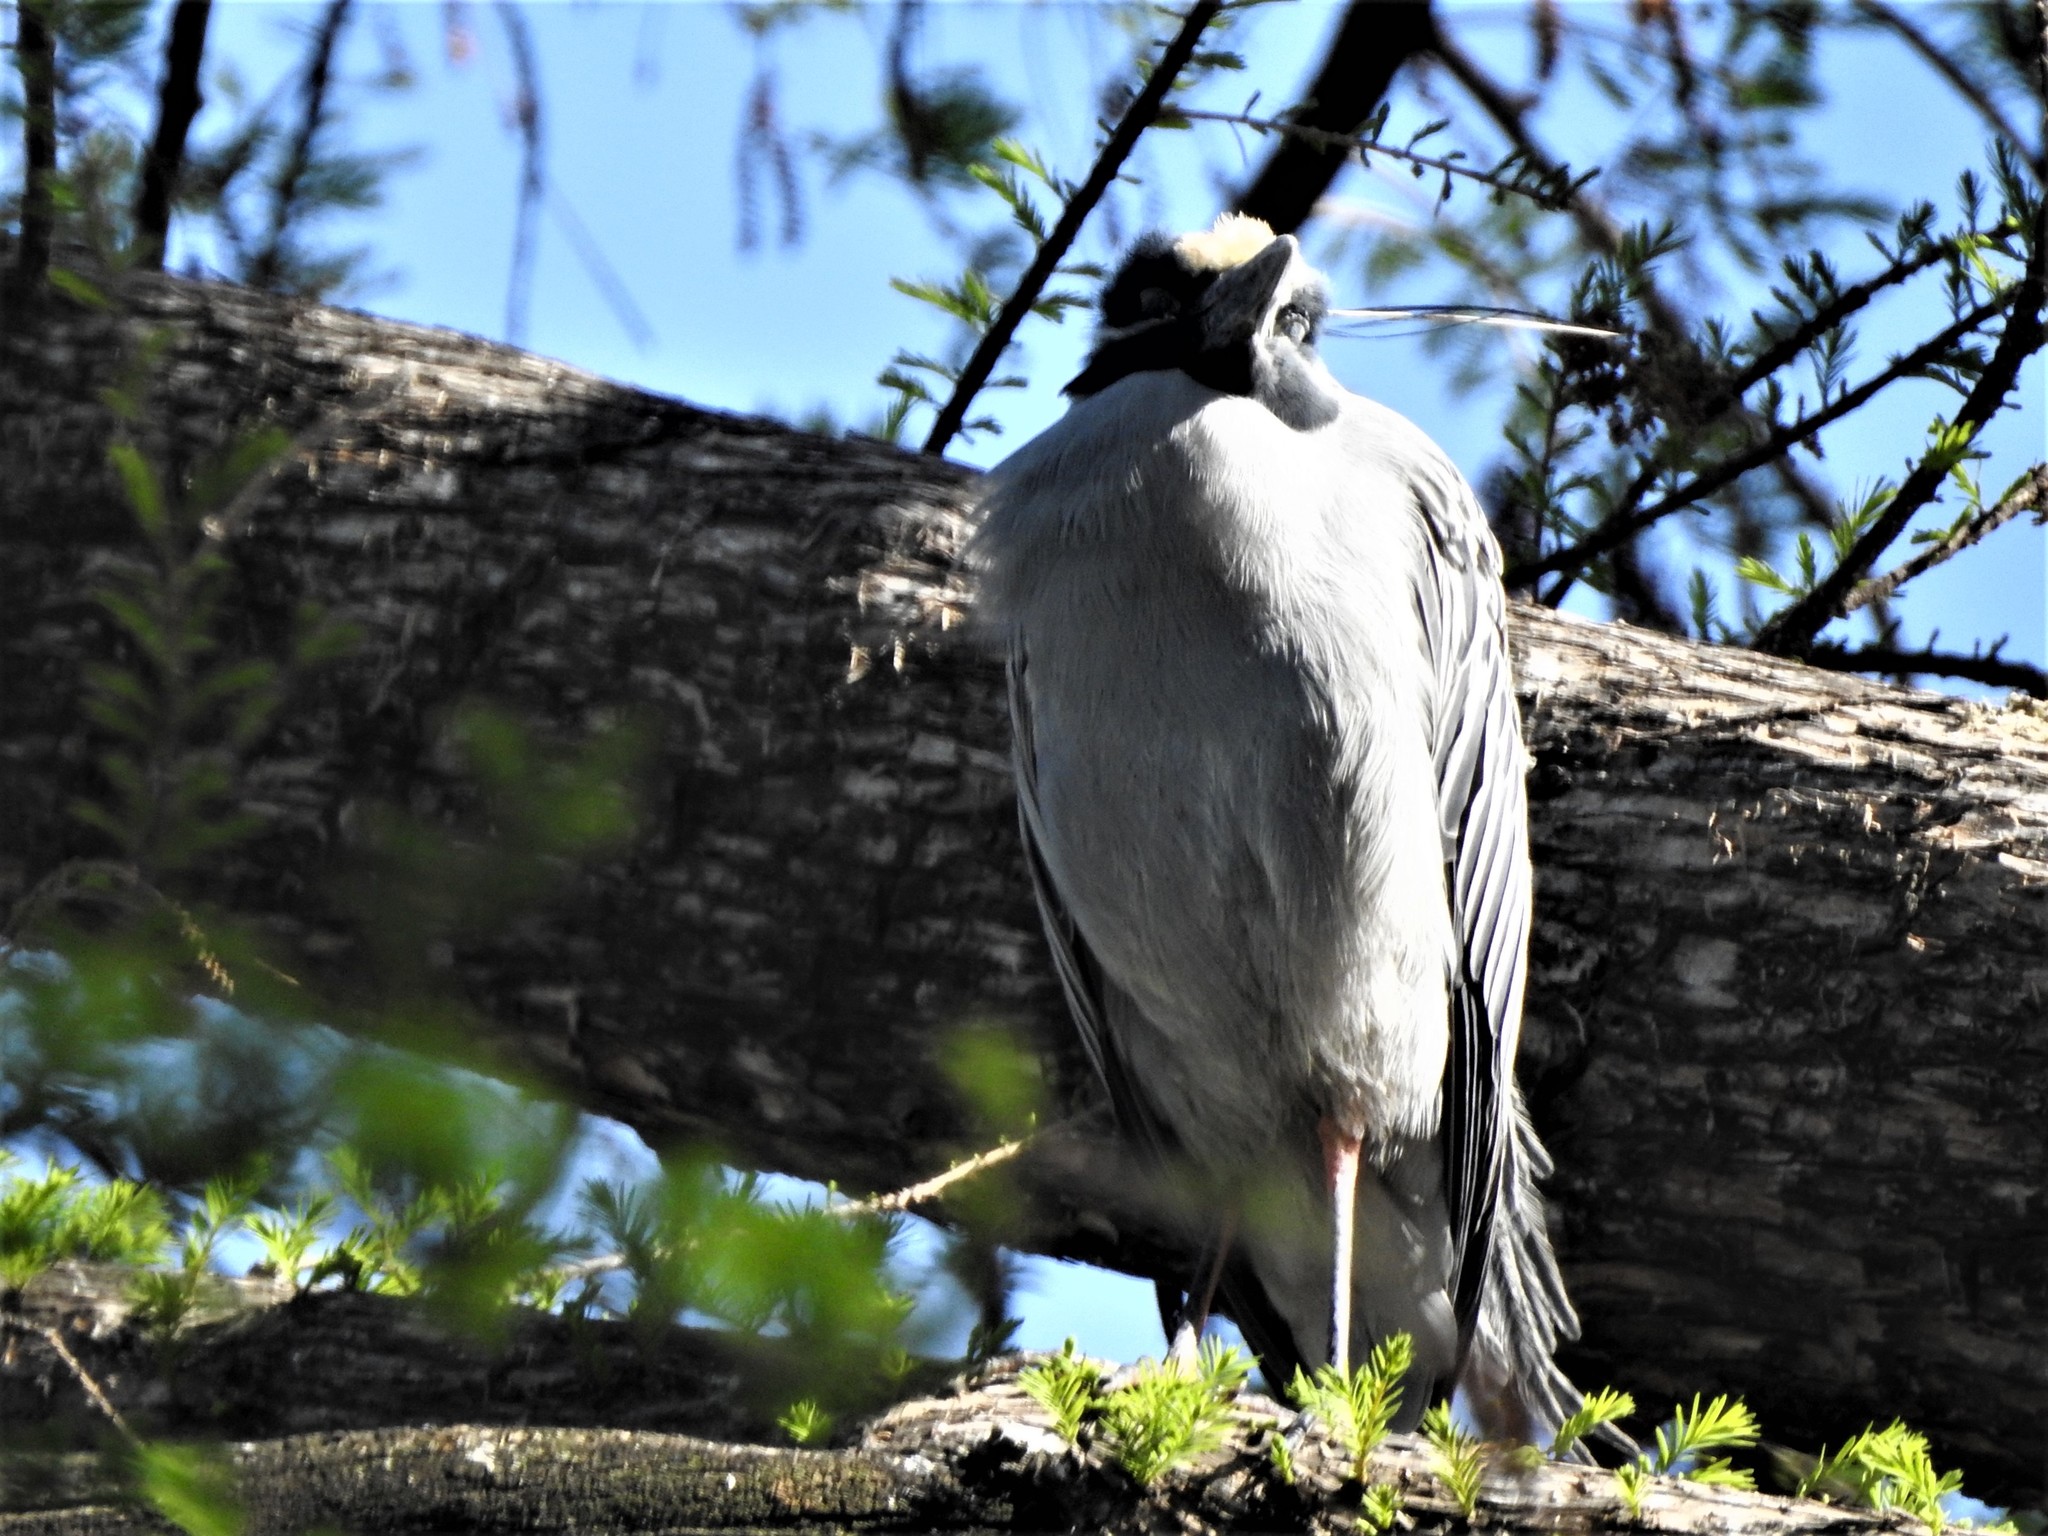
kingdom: Animalia
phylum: Chordata
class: Aves
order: Pelecaniformes
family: Ardeidae
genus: Nyctanassa
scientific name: Nyctanassa violacea
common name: Yellow-crowned night heron
